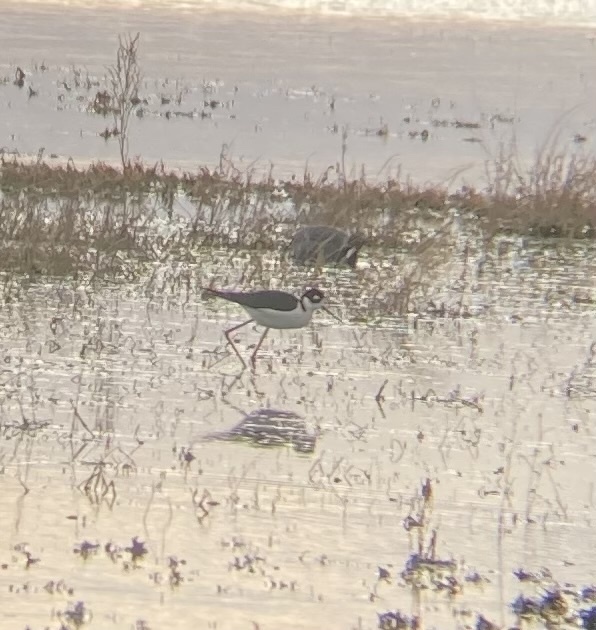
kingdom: Animalia
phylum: Chordata
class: Aves
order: Charadriiformes
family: Recurvirostridae
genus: Himantopus
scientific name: Himantopus mexicanus
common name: Black-necked stilt
